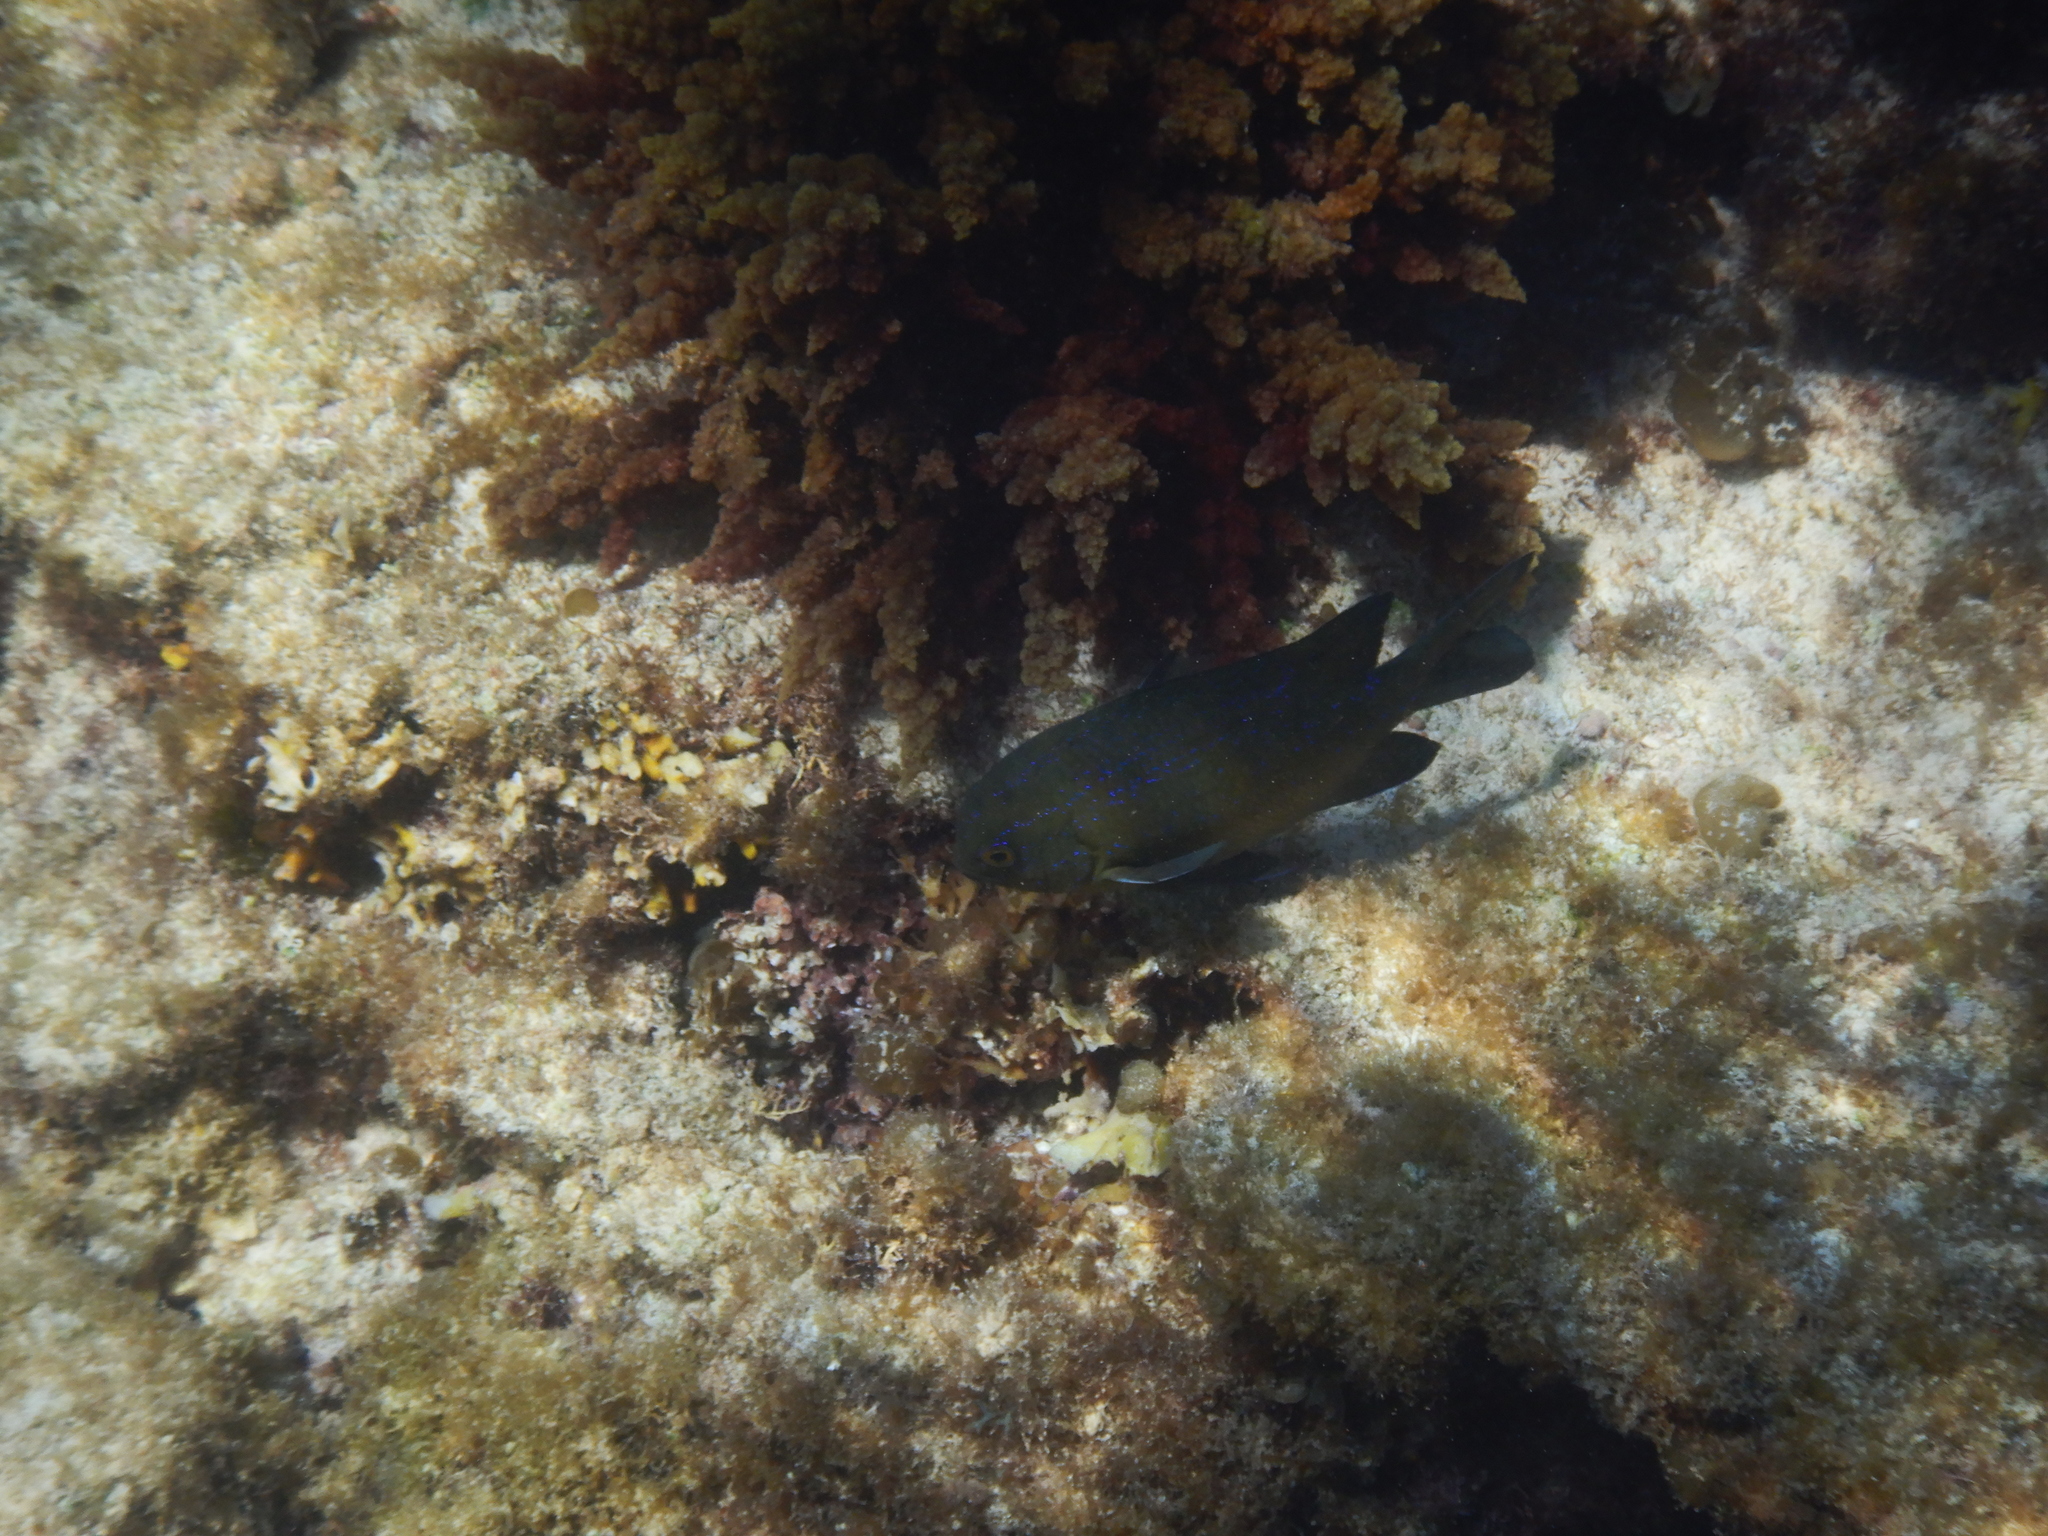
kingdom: Animalia
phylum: Chordata
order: Perciformes
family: Pomacentridae
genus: Parma
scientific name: Parma mccullochi
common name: Common scalyfin
